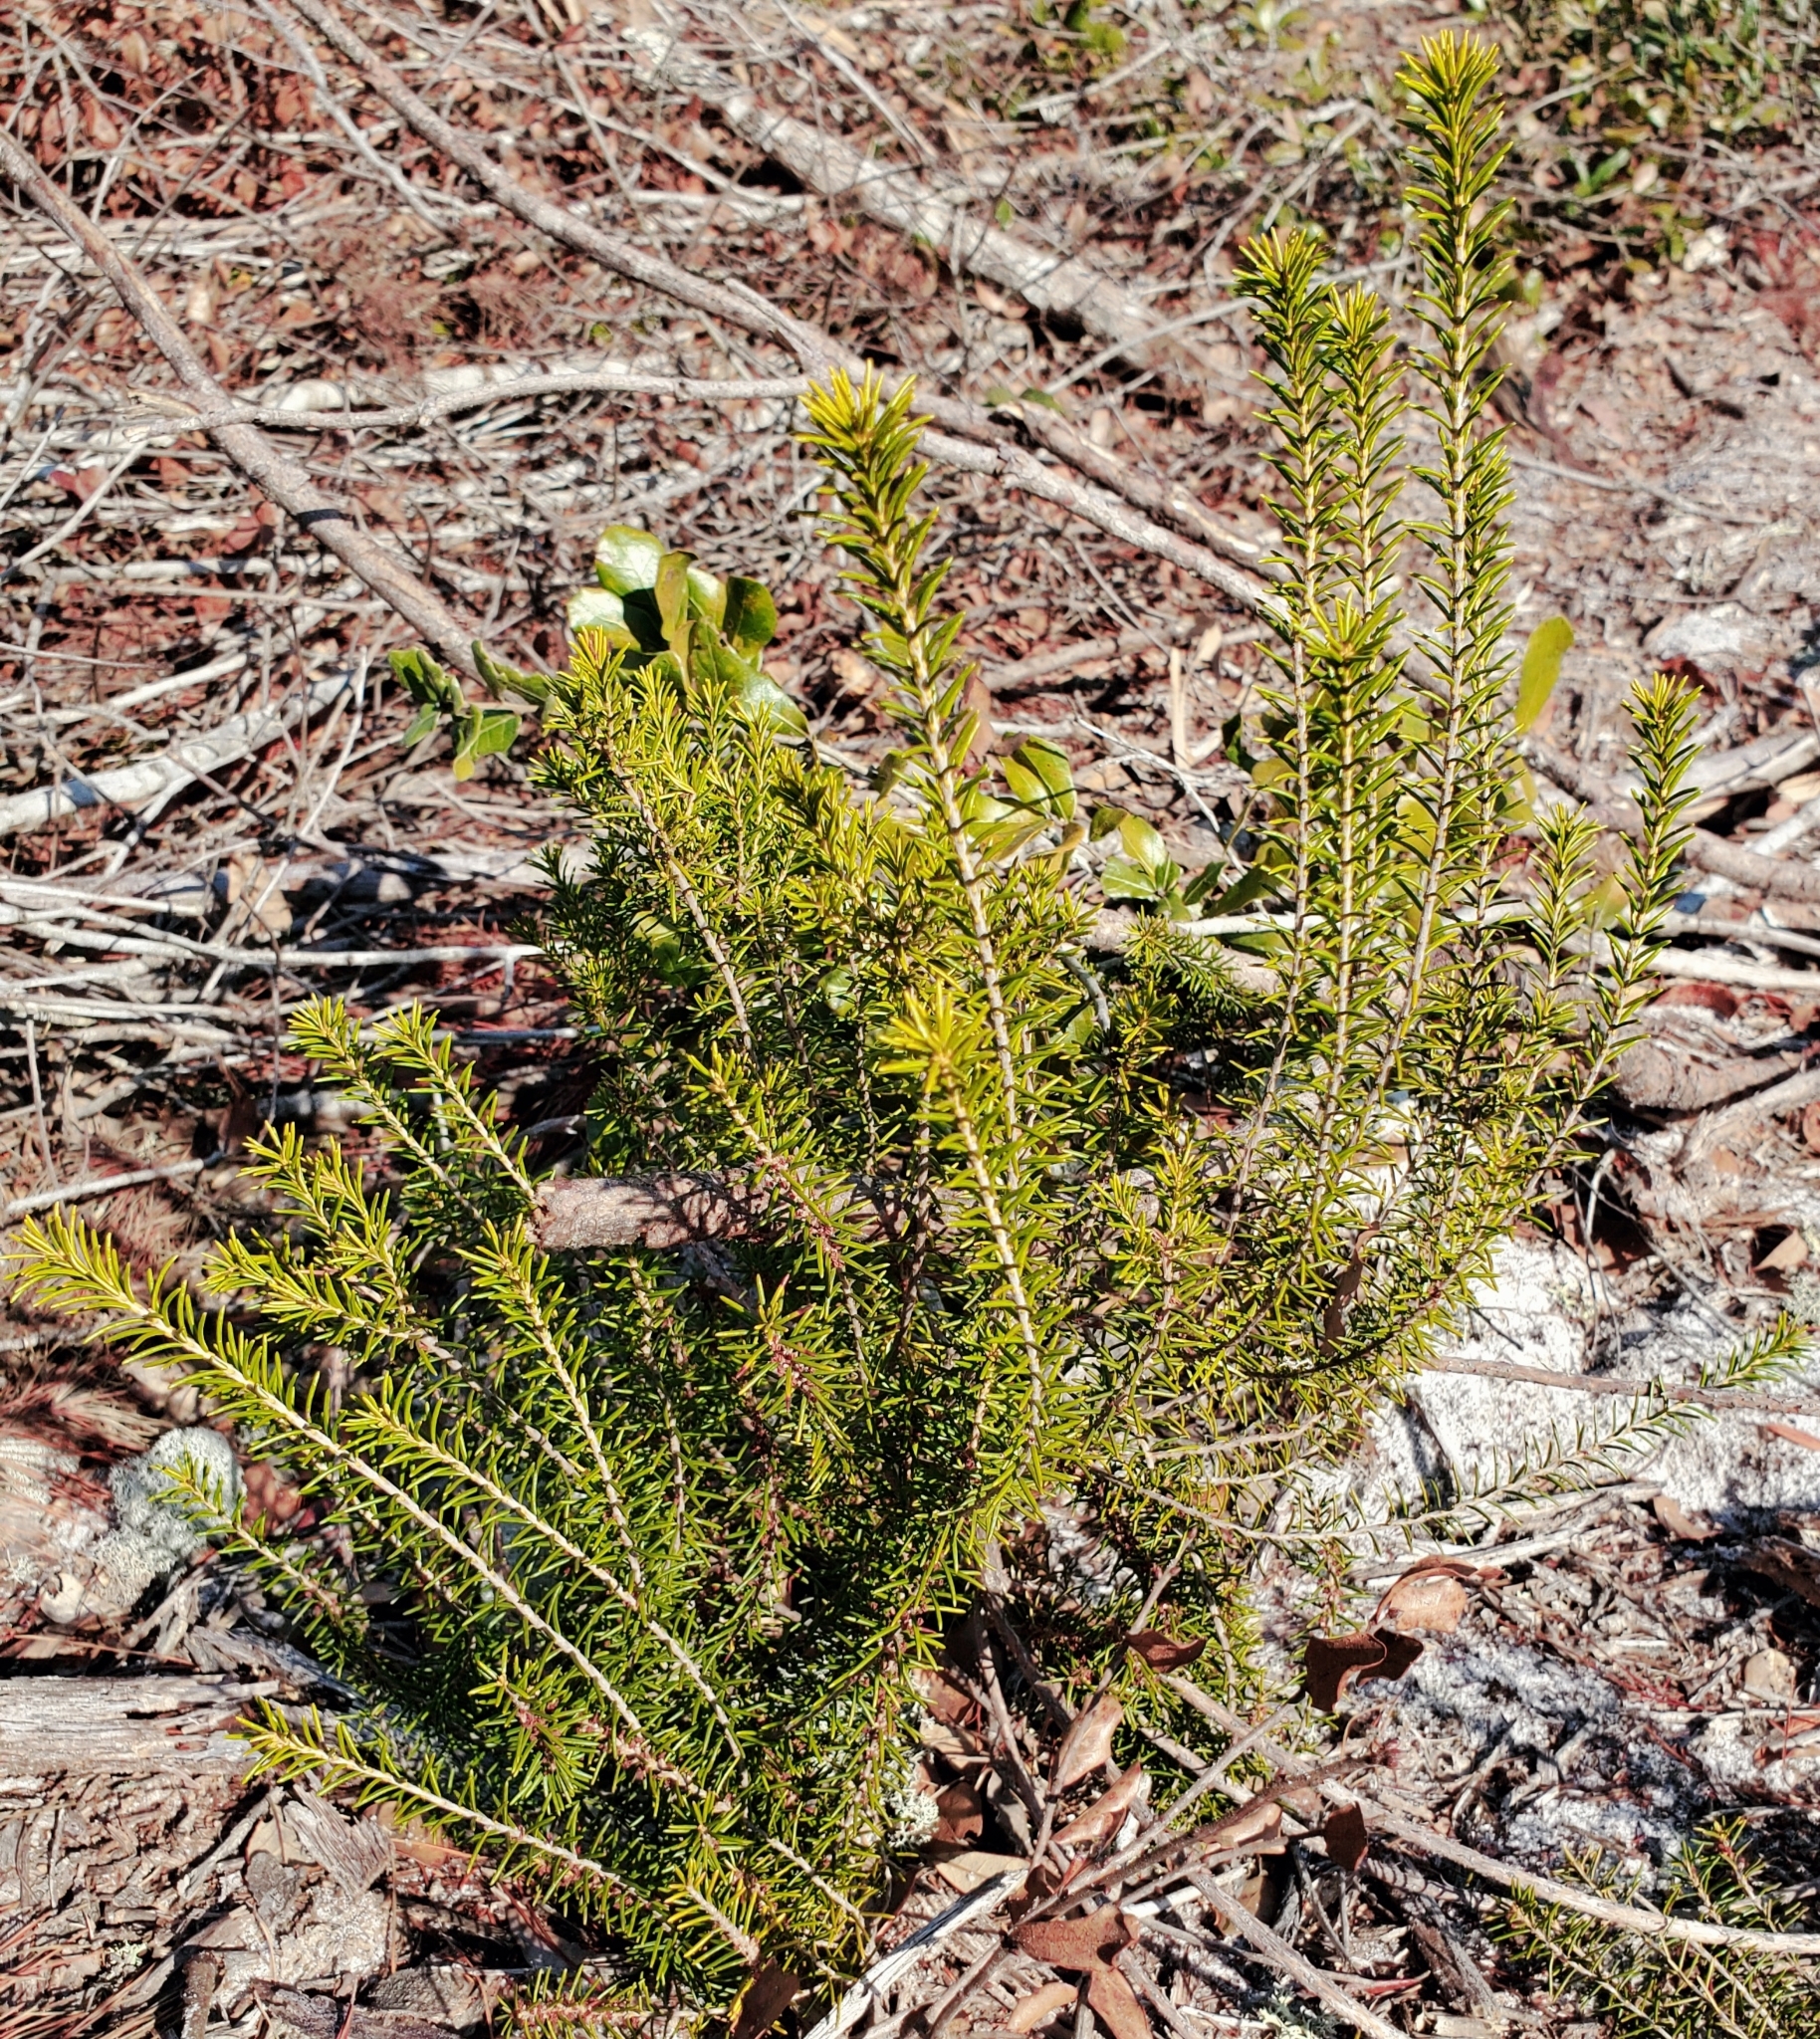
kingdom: Plantae
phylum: Tracheophyta
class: Magnoliopsida
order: Ericales
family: Ericaceae
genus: Ceratiola
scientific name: Ceratiola ericoides
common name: Sandhill-rosemary
